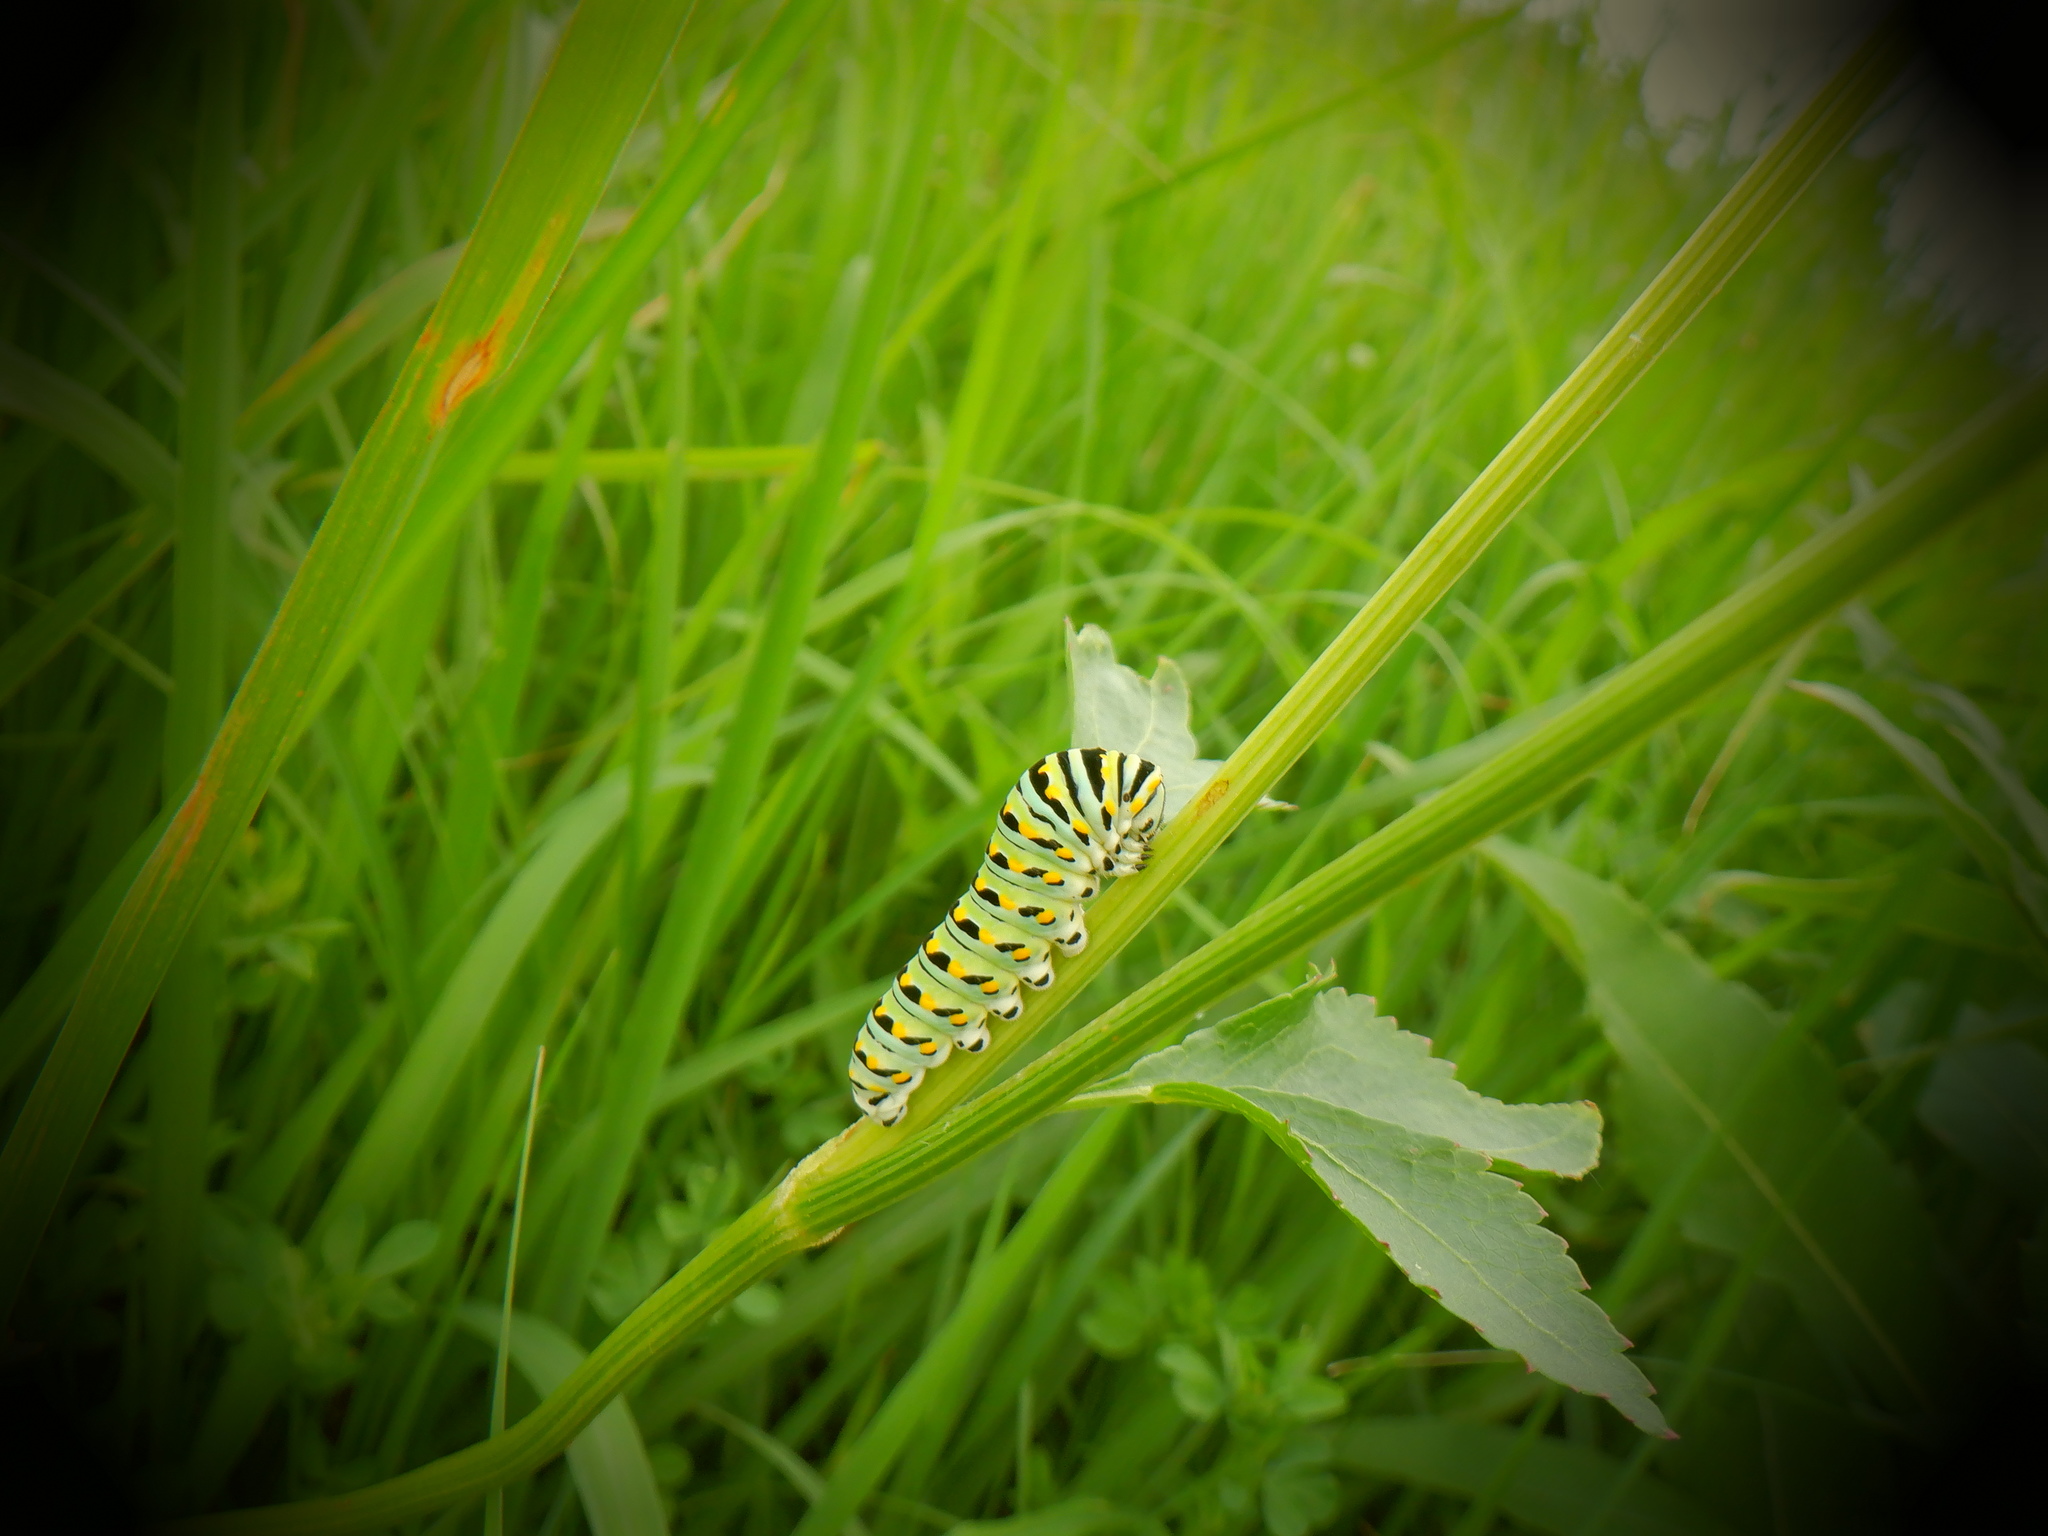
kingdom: Animalia
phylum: Arthropoda
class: Insecta
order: Lepidoptera
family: Papilionidae
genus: Papilio
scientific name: Papilio polyxenes
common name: Black swallowtail
